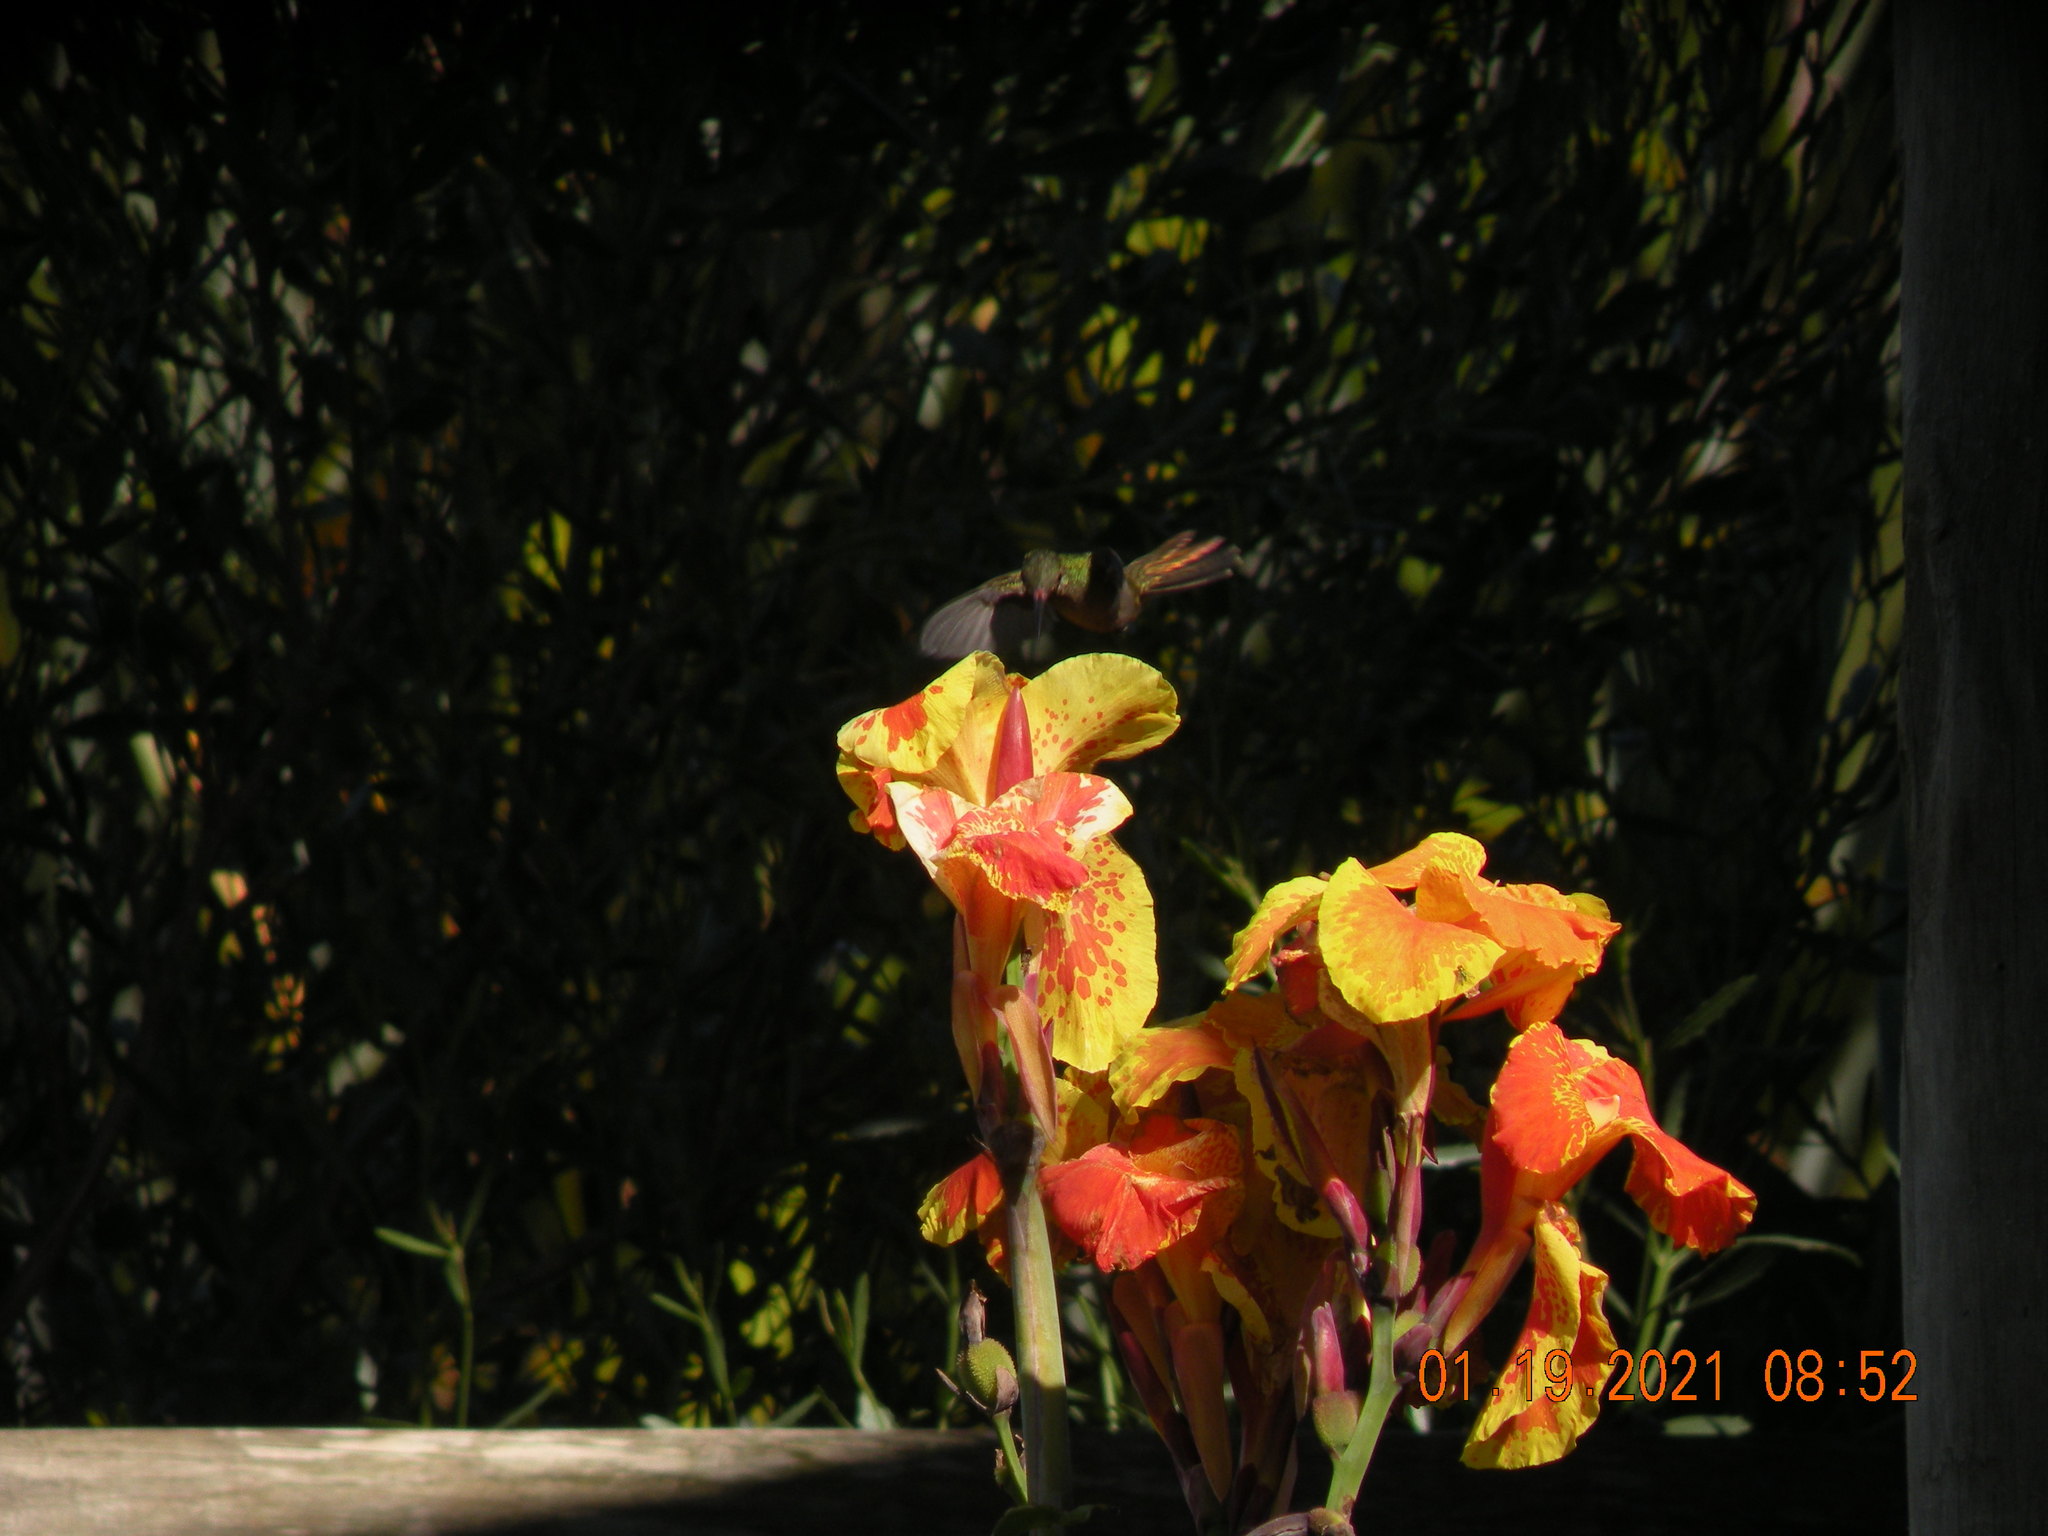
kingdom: Animalia
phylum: Chordata
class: Aves
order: Apodiformes
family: Trochilidae
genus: Hylocharis
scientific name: Hylocharis chrysura
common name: Gilded sapphire
